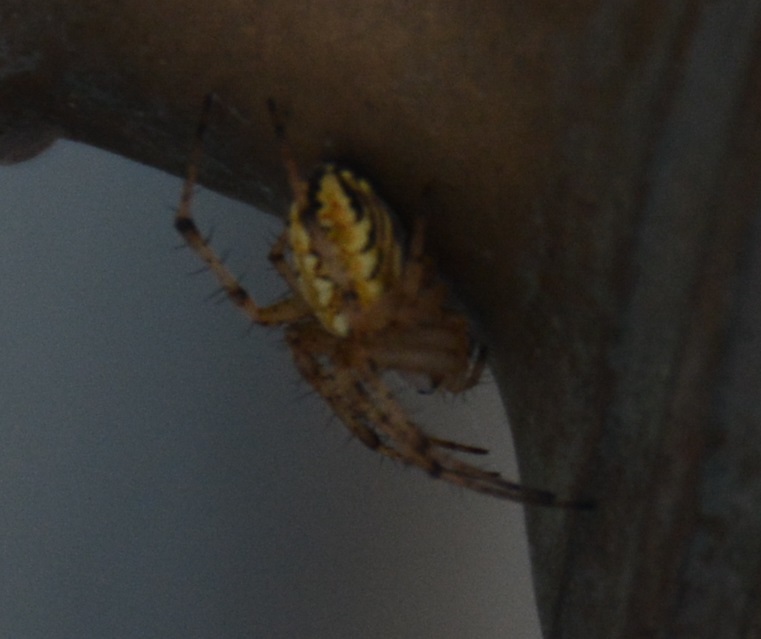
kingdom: Animalia
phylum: Arthropoda
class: Arachnida
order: Araneae
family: Araneidae
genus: Neoscona
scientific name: Neoscona adianta
